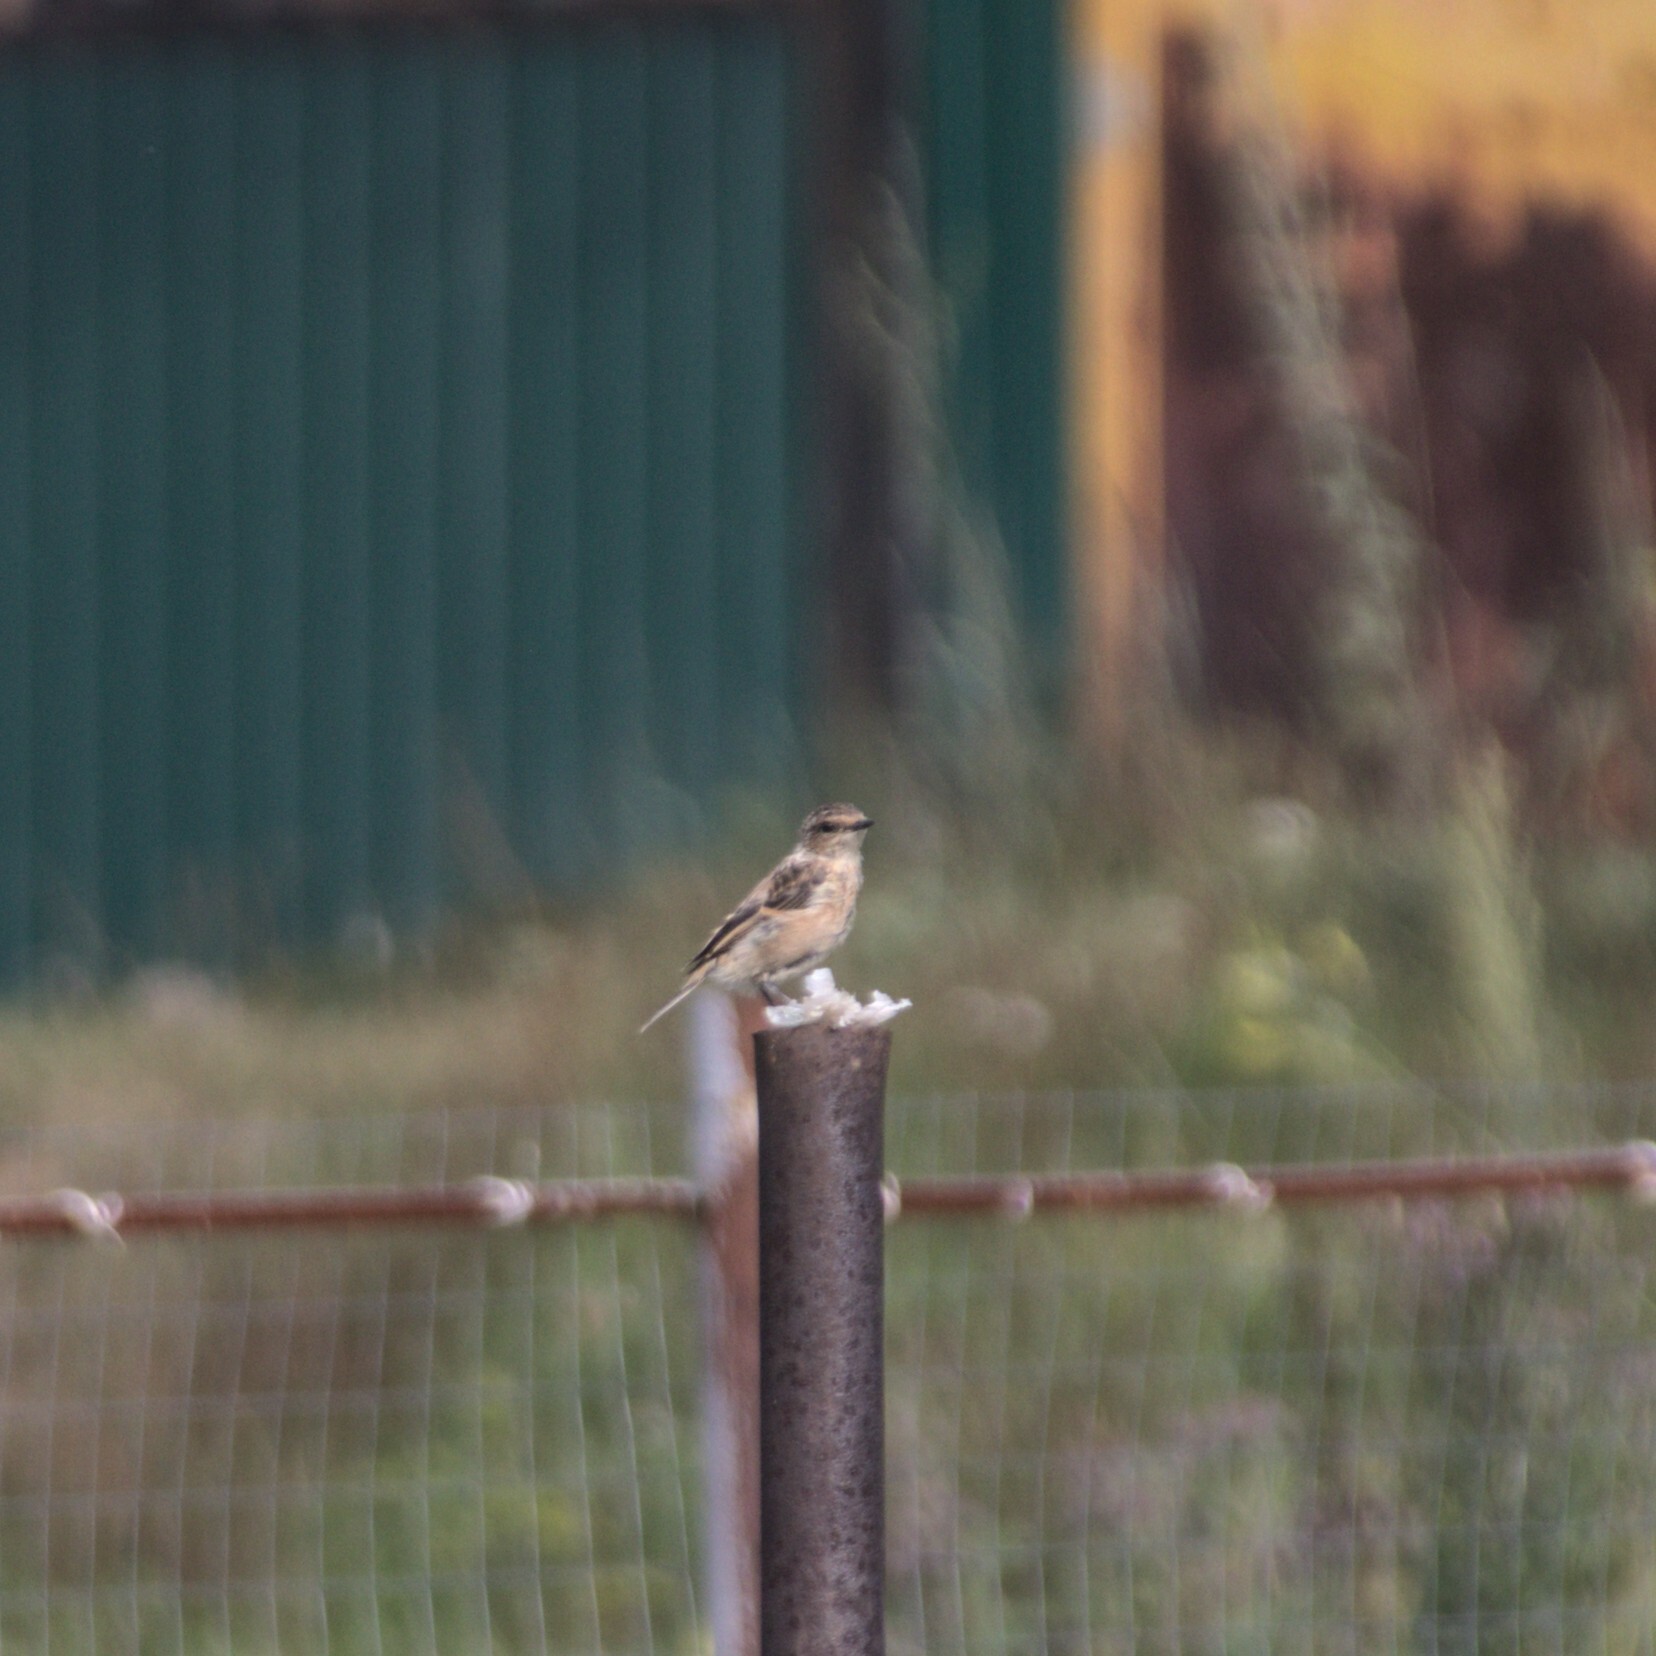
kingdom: Animalia
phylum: Chordata
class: Aves
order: Passeriformes
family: Muscicapidae
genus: Saxicola
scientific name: Saxicola rubetra
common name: Whinchat
